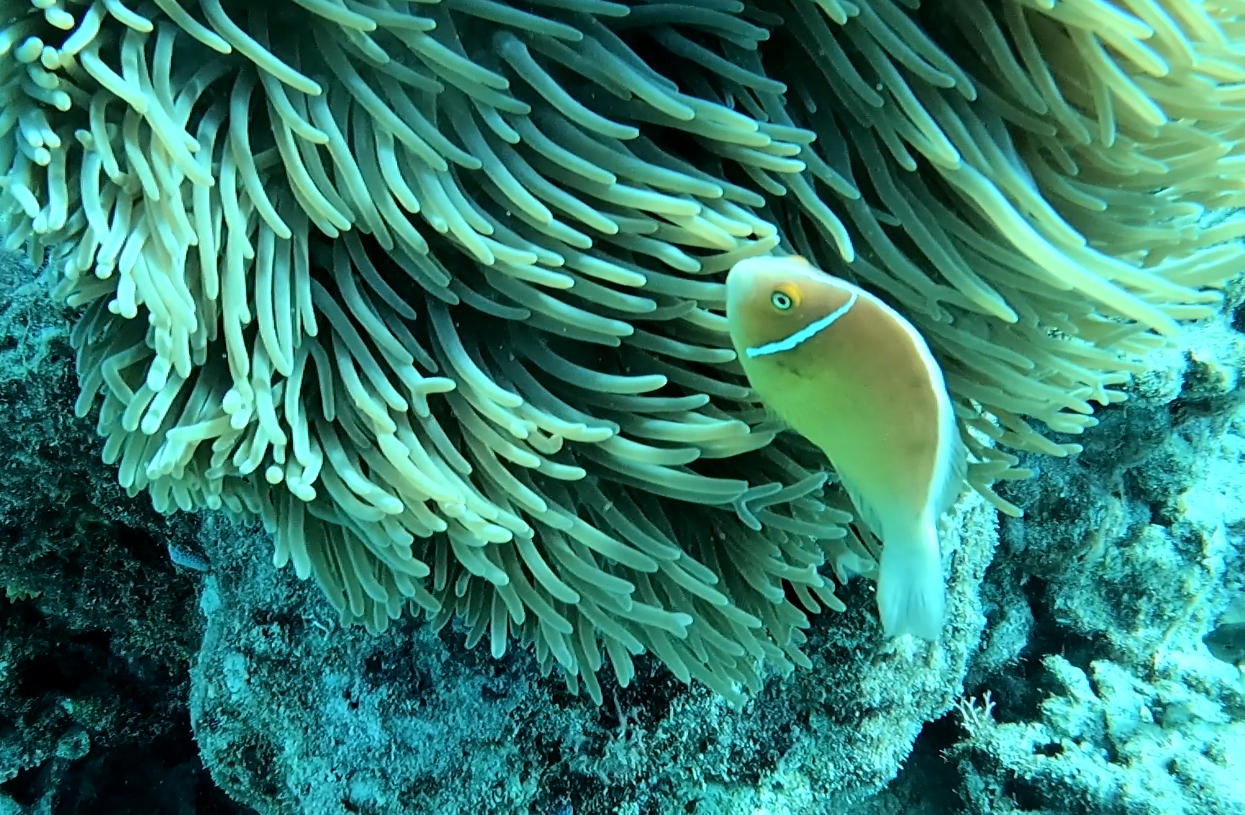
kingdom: Animalia
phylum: Chordata
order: Perciformes
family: Pomacentridae
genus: Amphiprion
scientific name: Amphiprion perideraion
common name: Pink anemonefish
